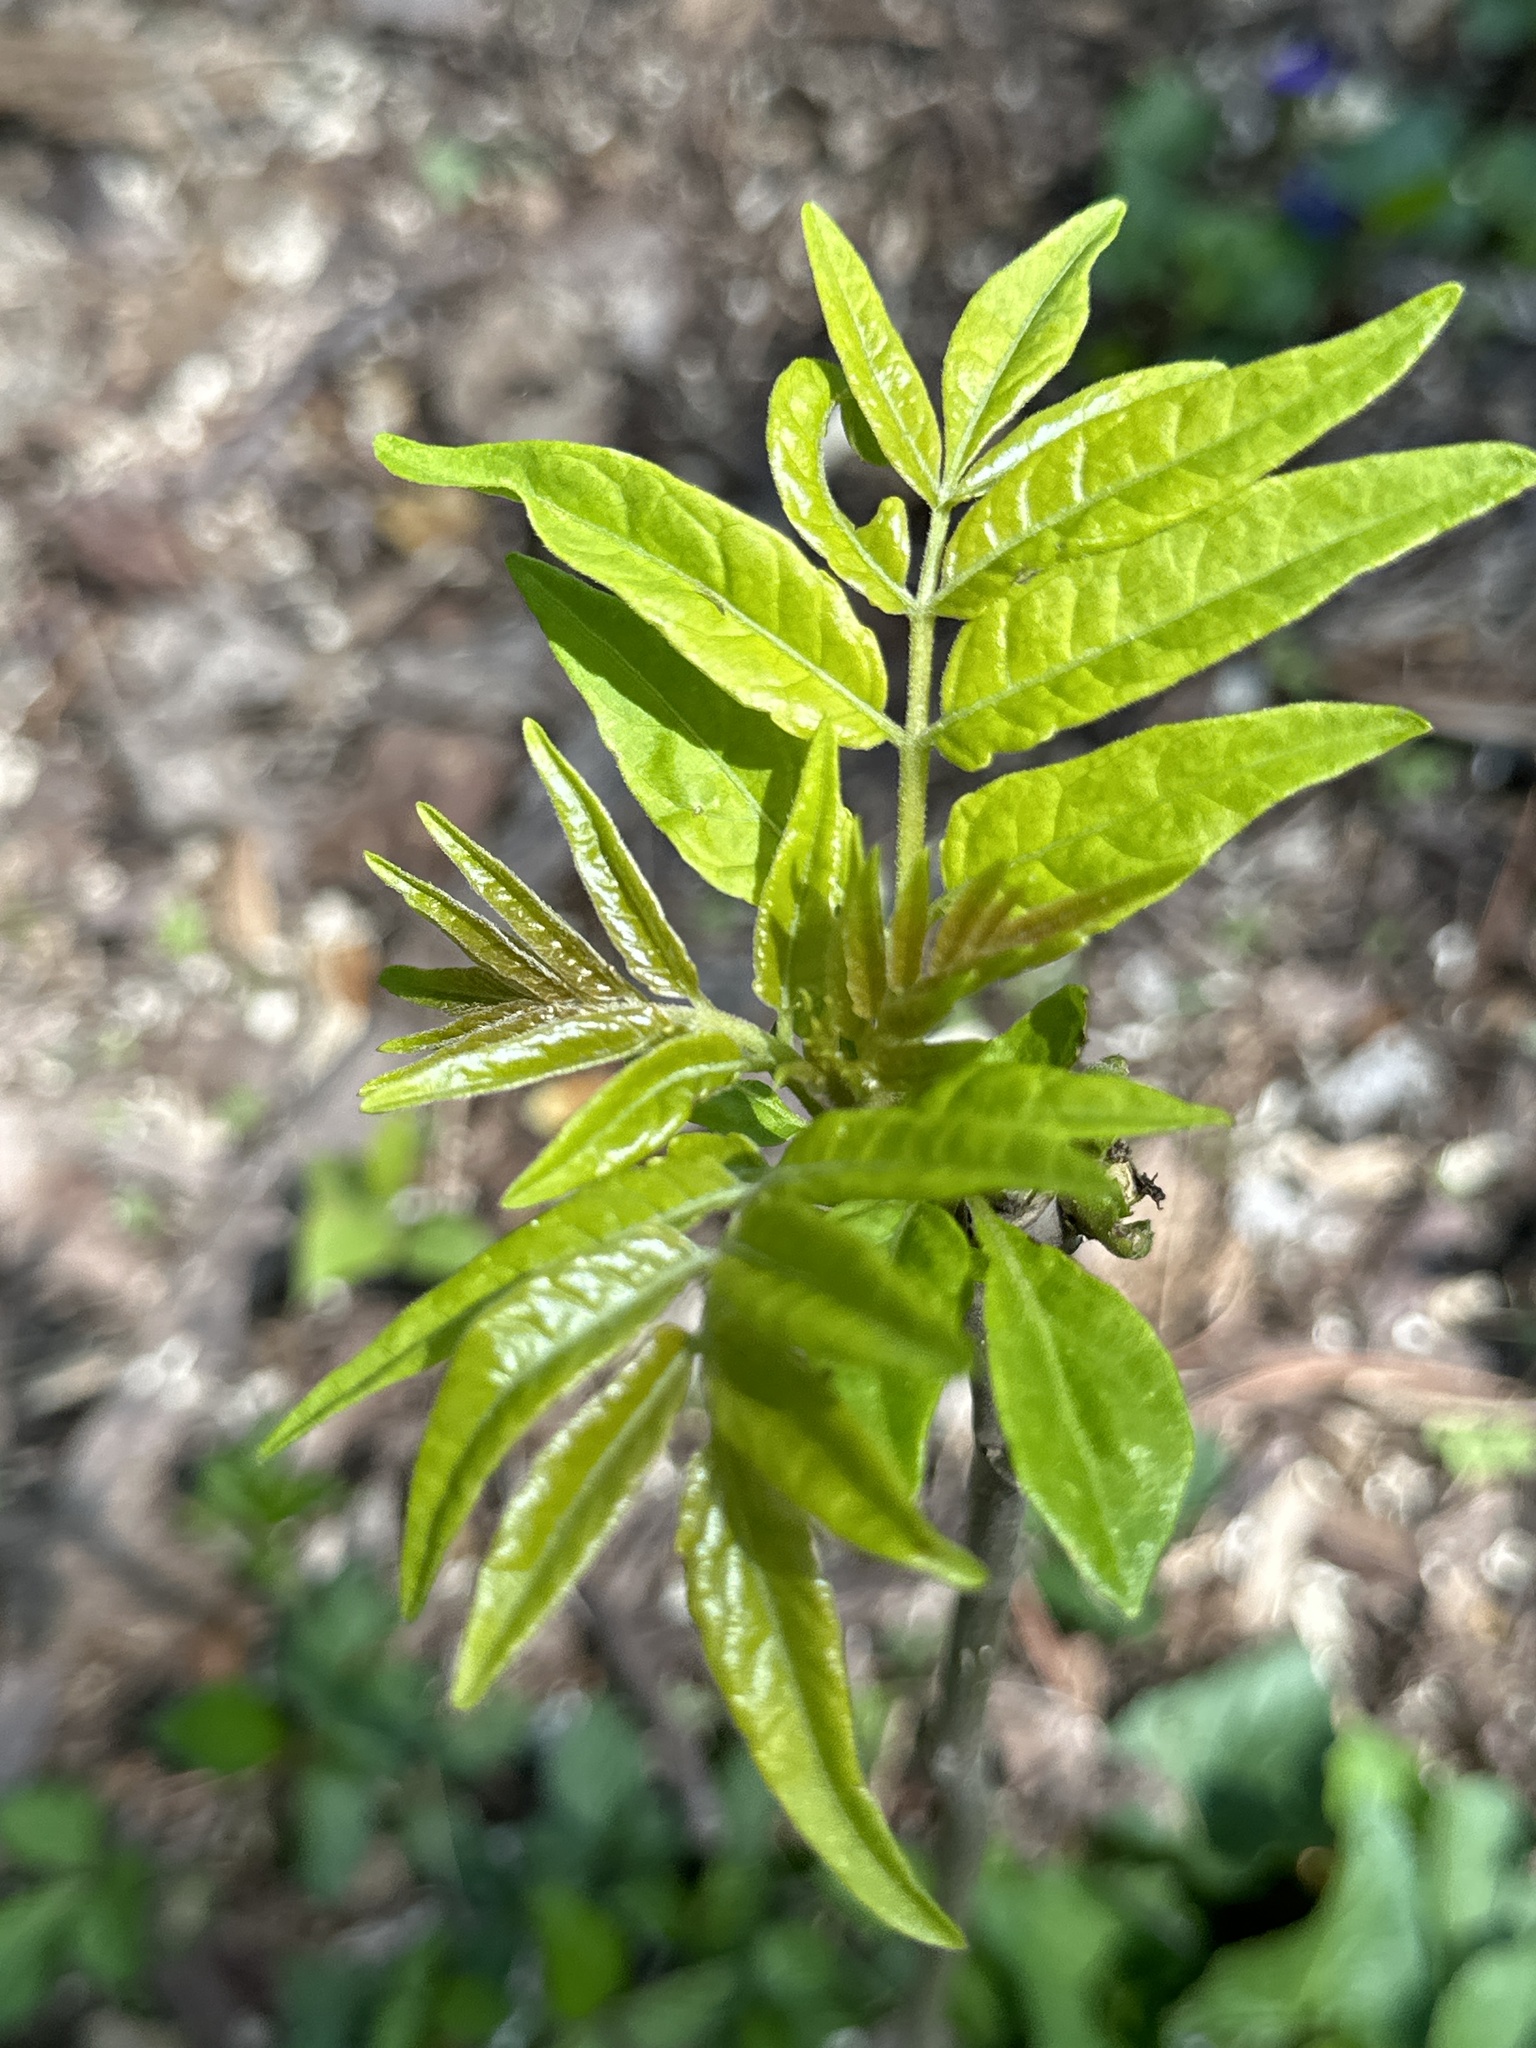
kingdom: Plantae
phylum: Tracheophyta
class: Magnoliopsida
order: Sapindales
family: Simaroubaceae
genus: Ailanthus
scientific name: Ailanthus altissima
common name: Tree-of-heaven
